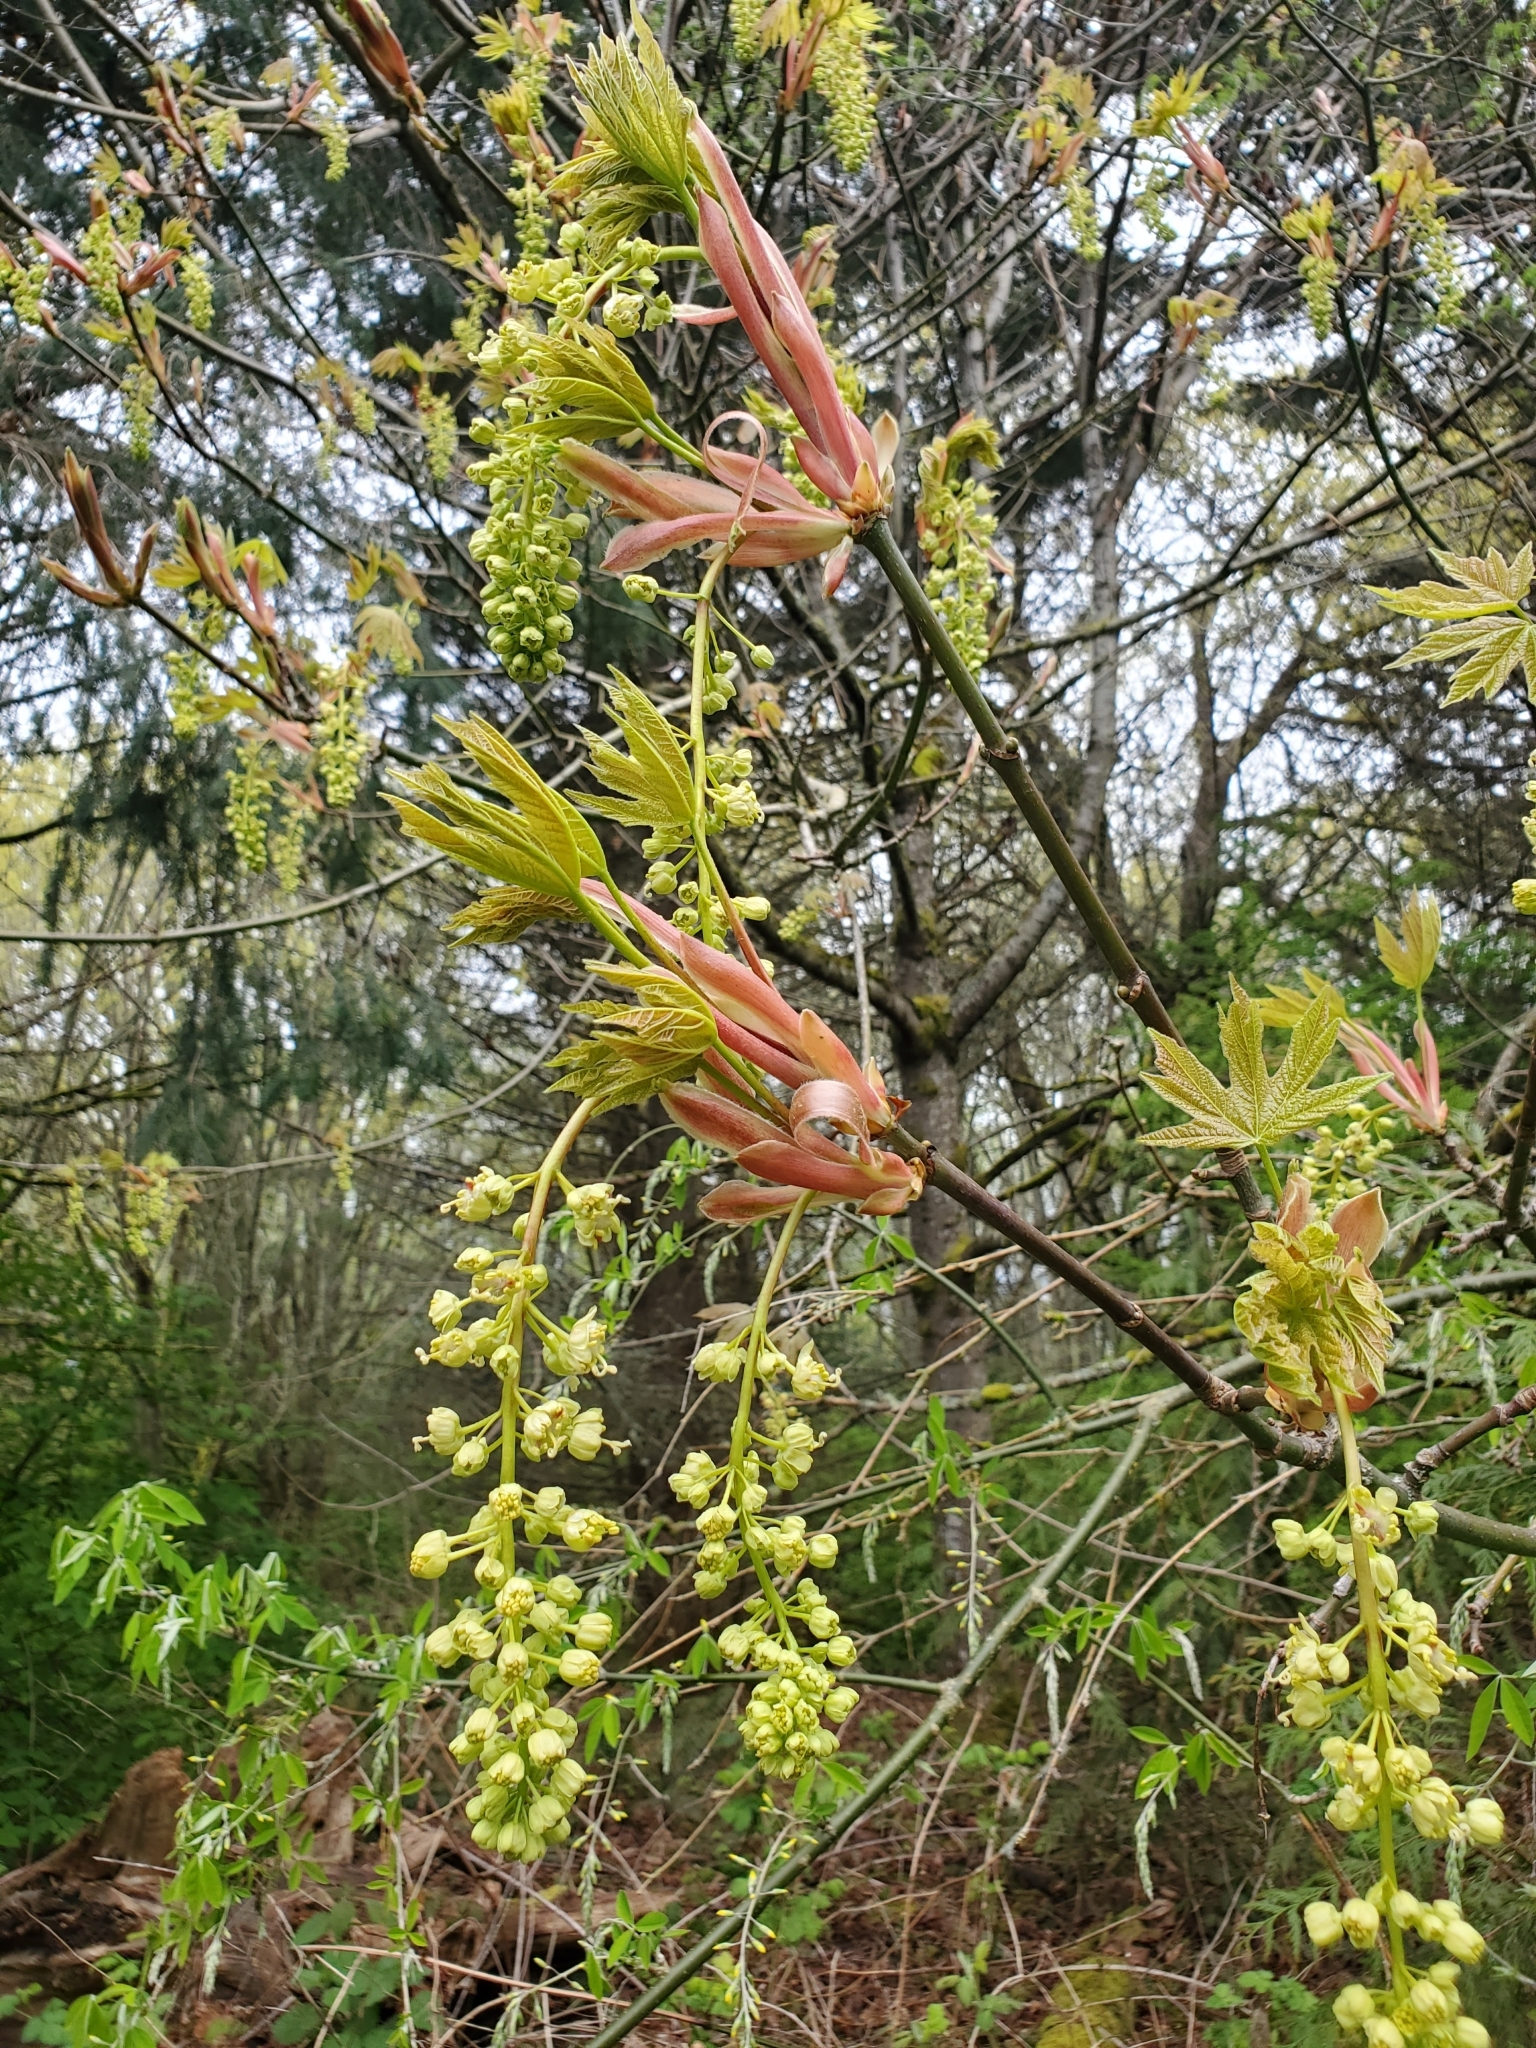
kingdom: Plantae
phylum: Tracheophyta
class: Magnoliopsida
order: Sapindales
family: Sapindaceae
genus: Acer
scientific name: Acer macrophyllum
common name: Oregon maple
